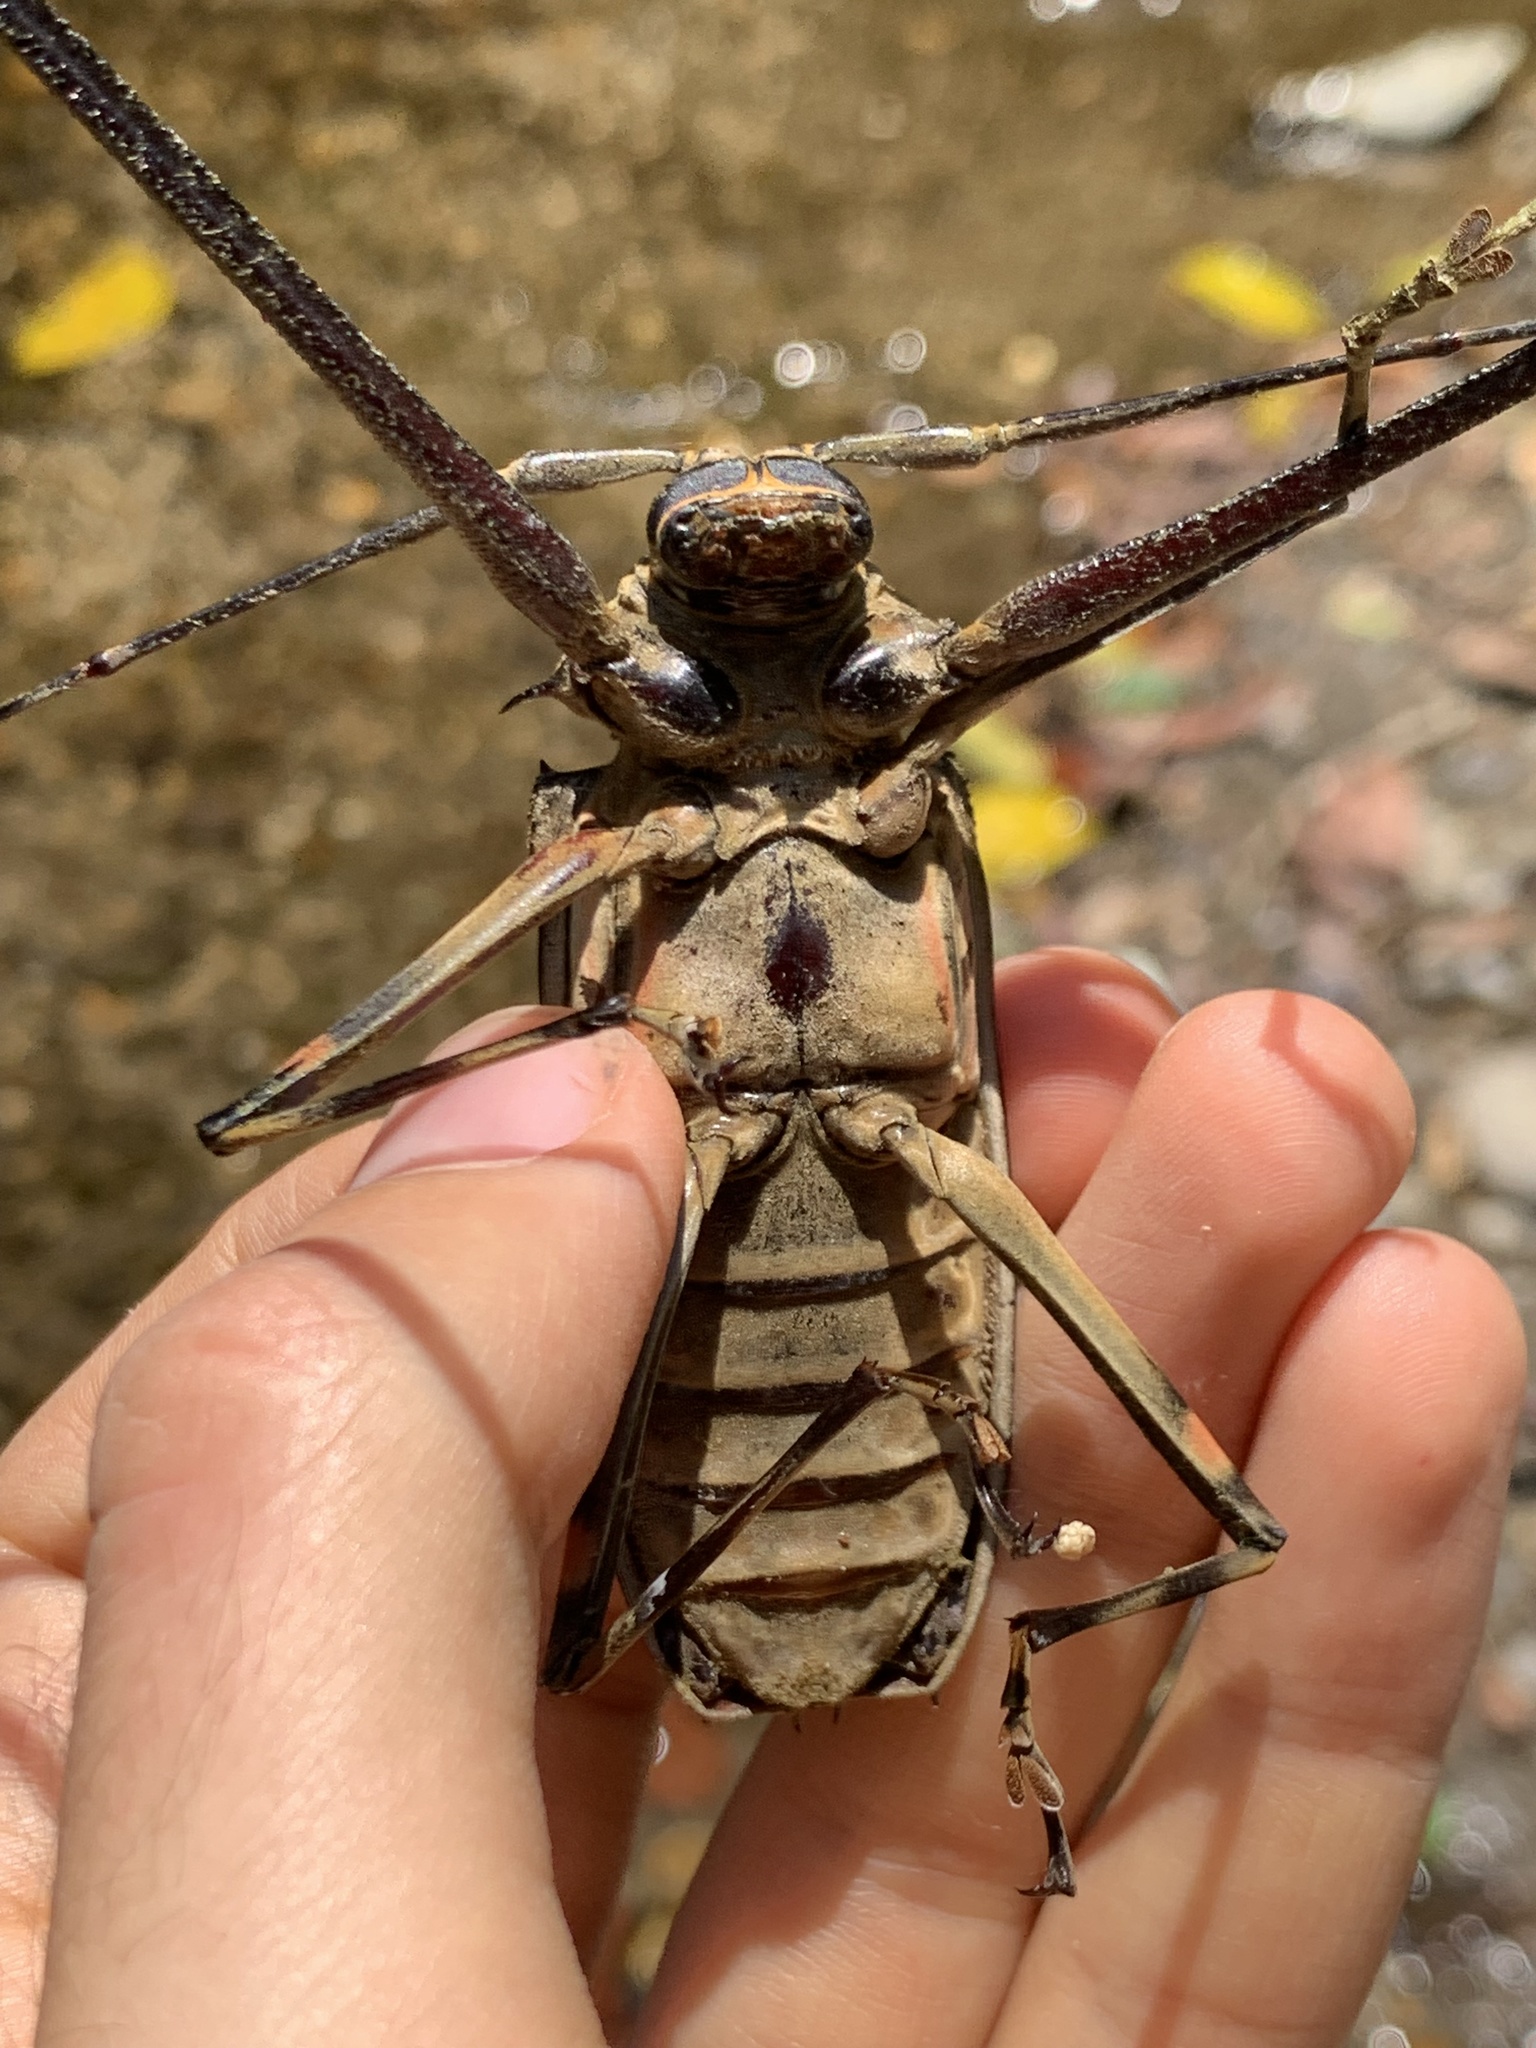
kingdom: Animalia
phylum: Arthropoda
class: Insecta
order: Coleoptera
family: Cerambycidae
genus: Acrocinus
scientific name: Acrocinus longimanus
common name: Arlequin
